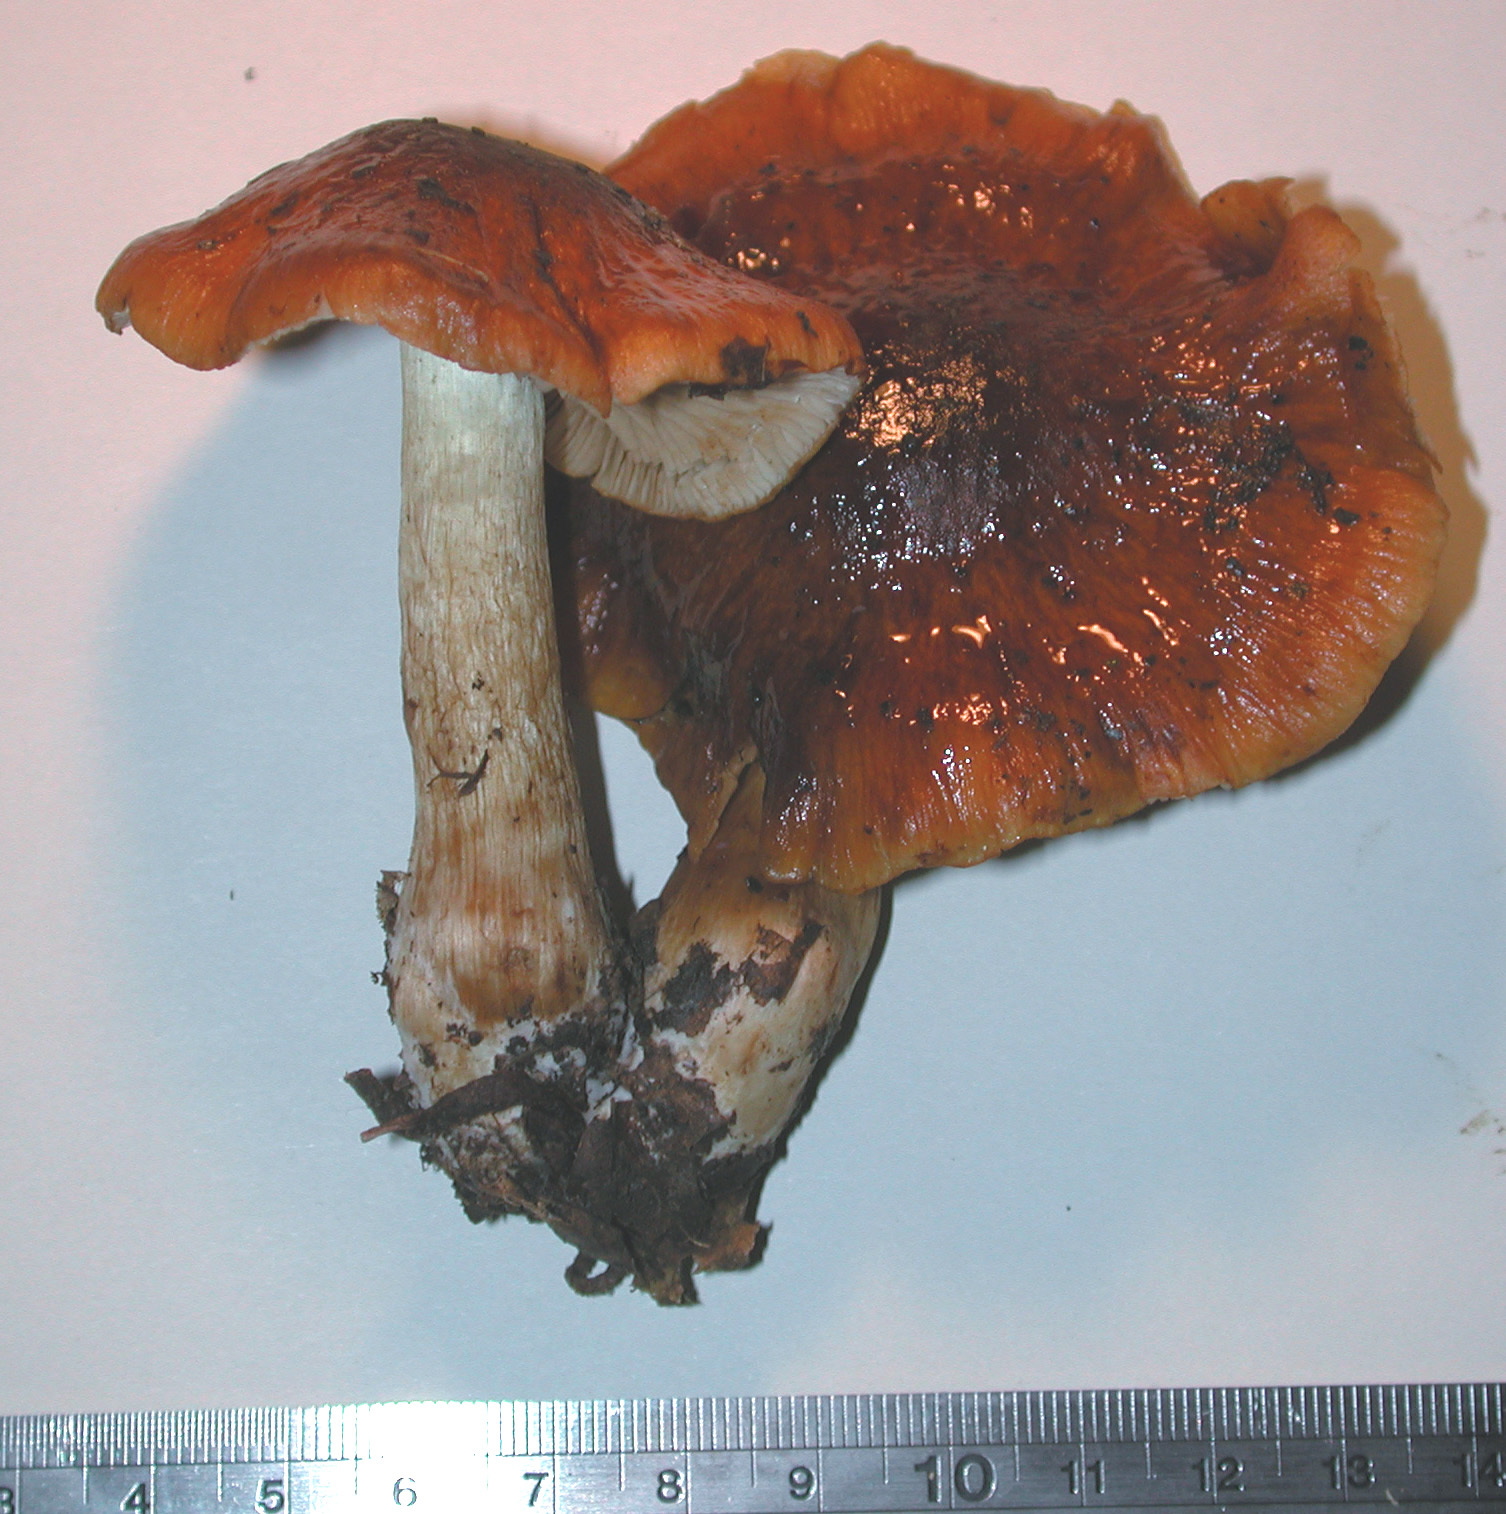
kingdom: Fungi
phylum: Basidiomycota
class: Agaricomycetes
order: Agaricales
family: Cortinariaceae
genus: Cortinarius
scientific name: Cortinarius perelegans
